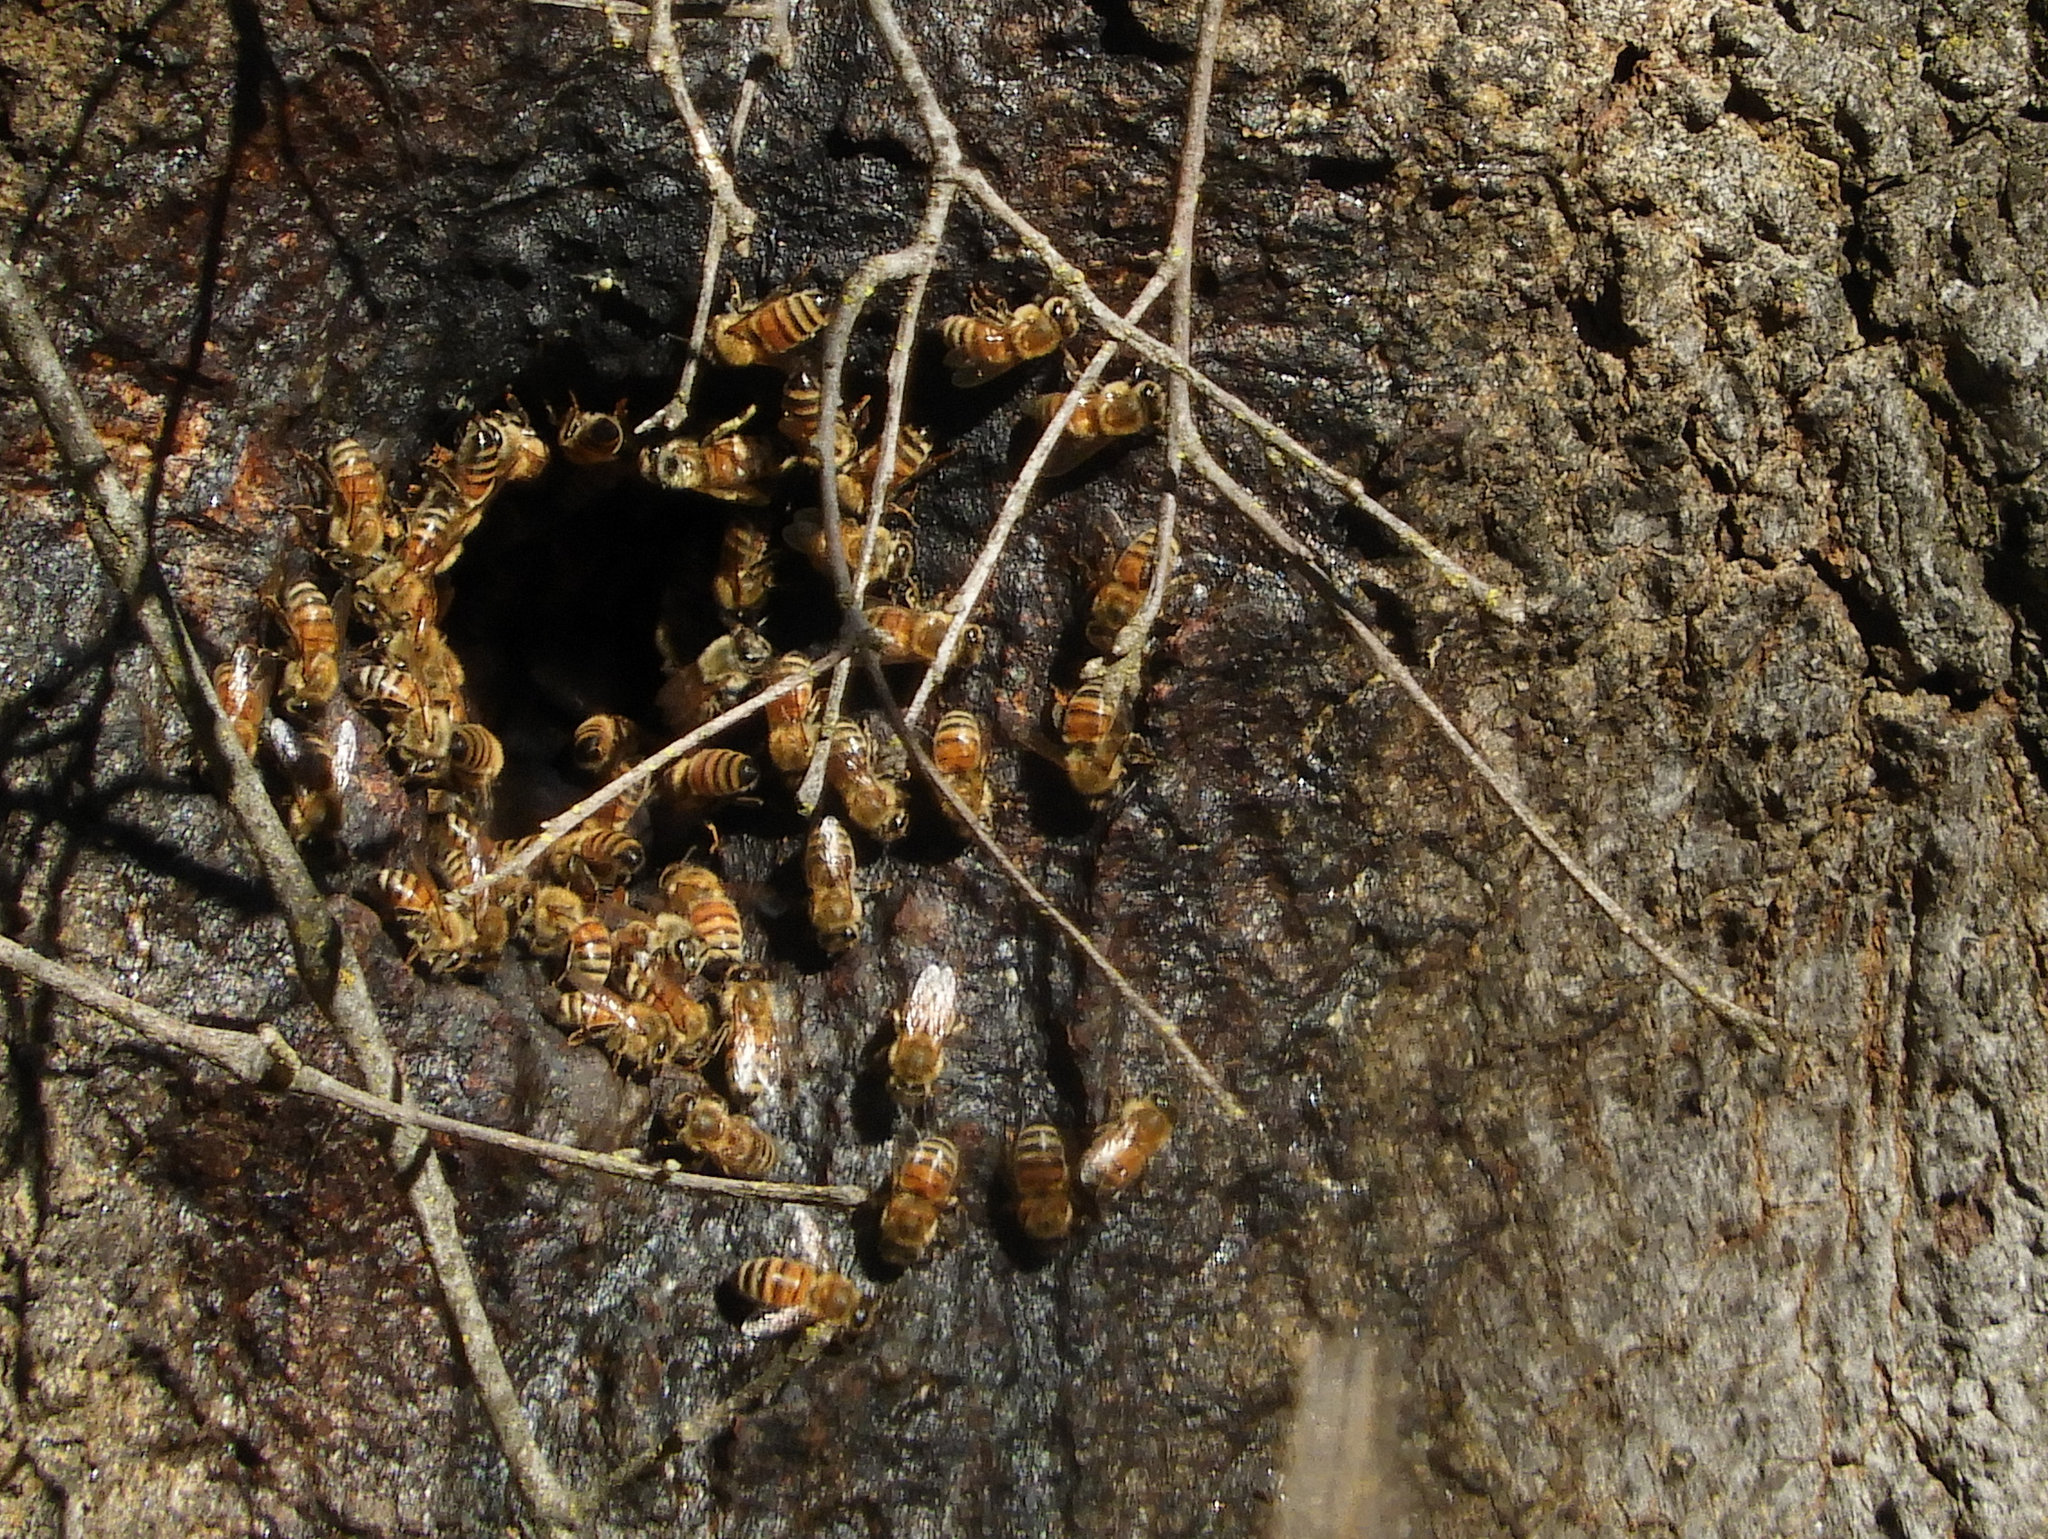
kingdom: Animalia
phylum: Arthropoda
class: Insecta
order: Hymenoptera
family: Apidae
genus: Apis
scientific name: Apis mellifera
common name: Honey bee
